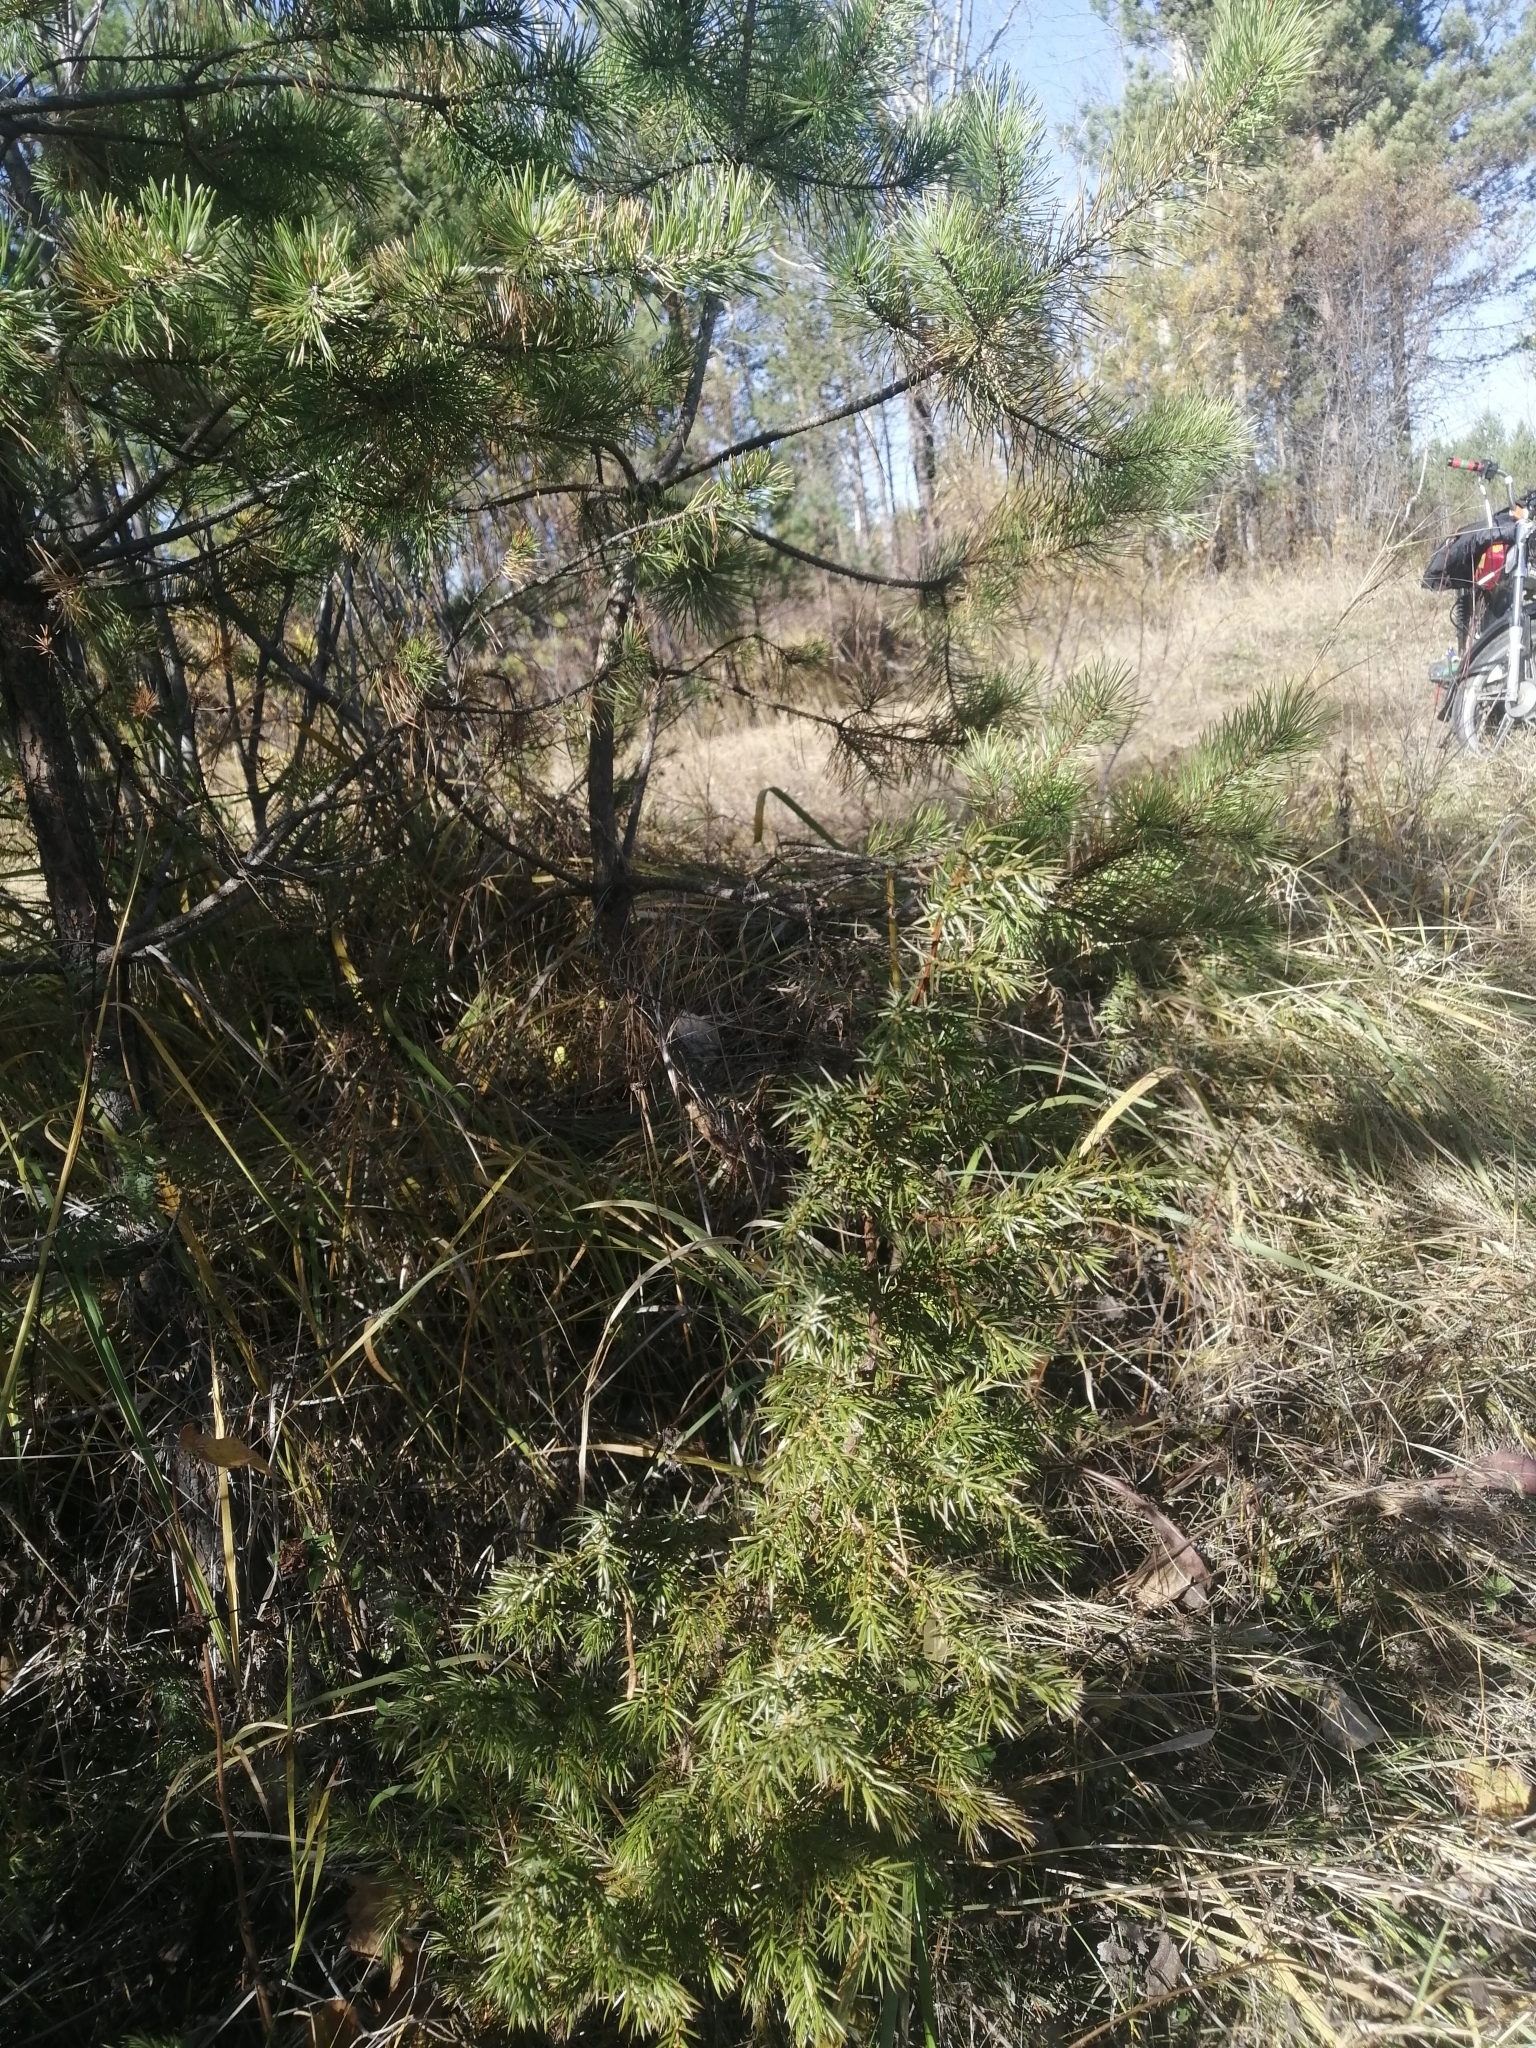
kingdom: Plantae
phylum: Tracheophyta
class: Pinopsida
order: Pinales
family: Cupressaceae
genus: Juniperus
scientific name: Juniperus communis
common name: Common juniper
